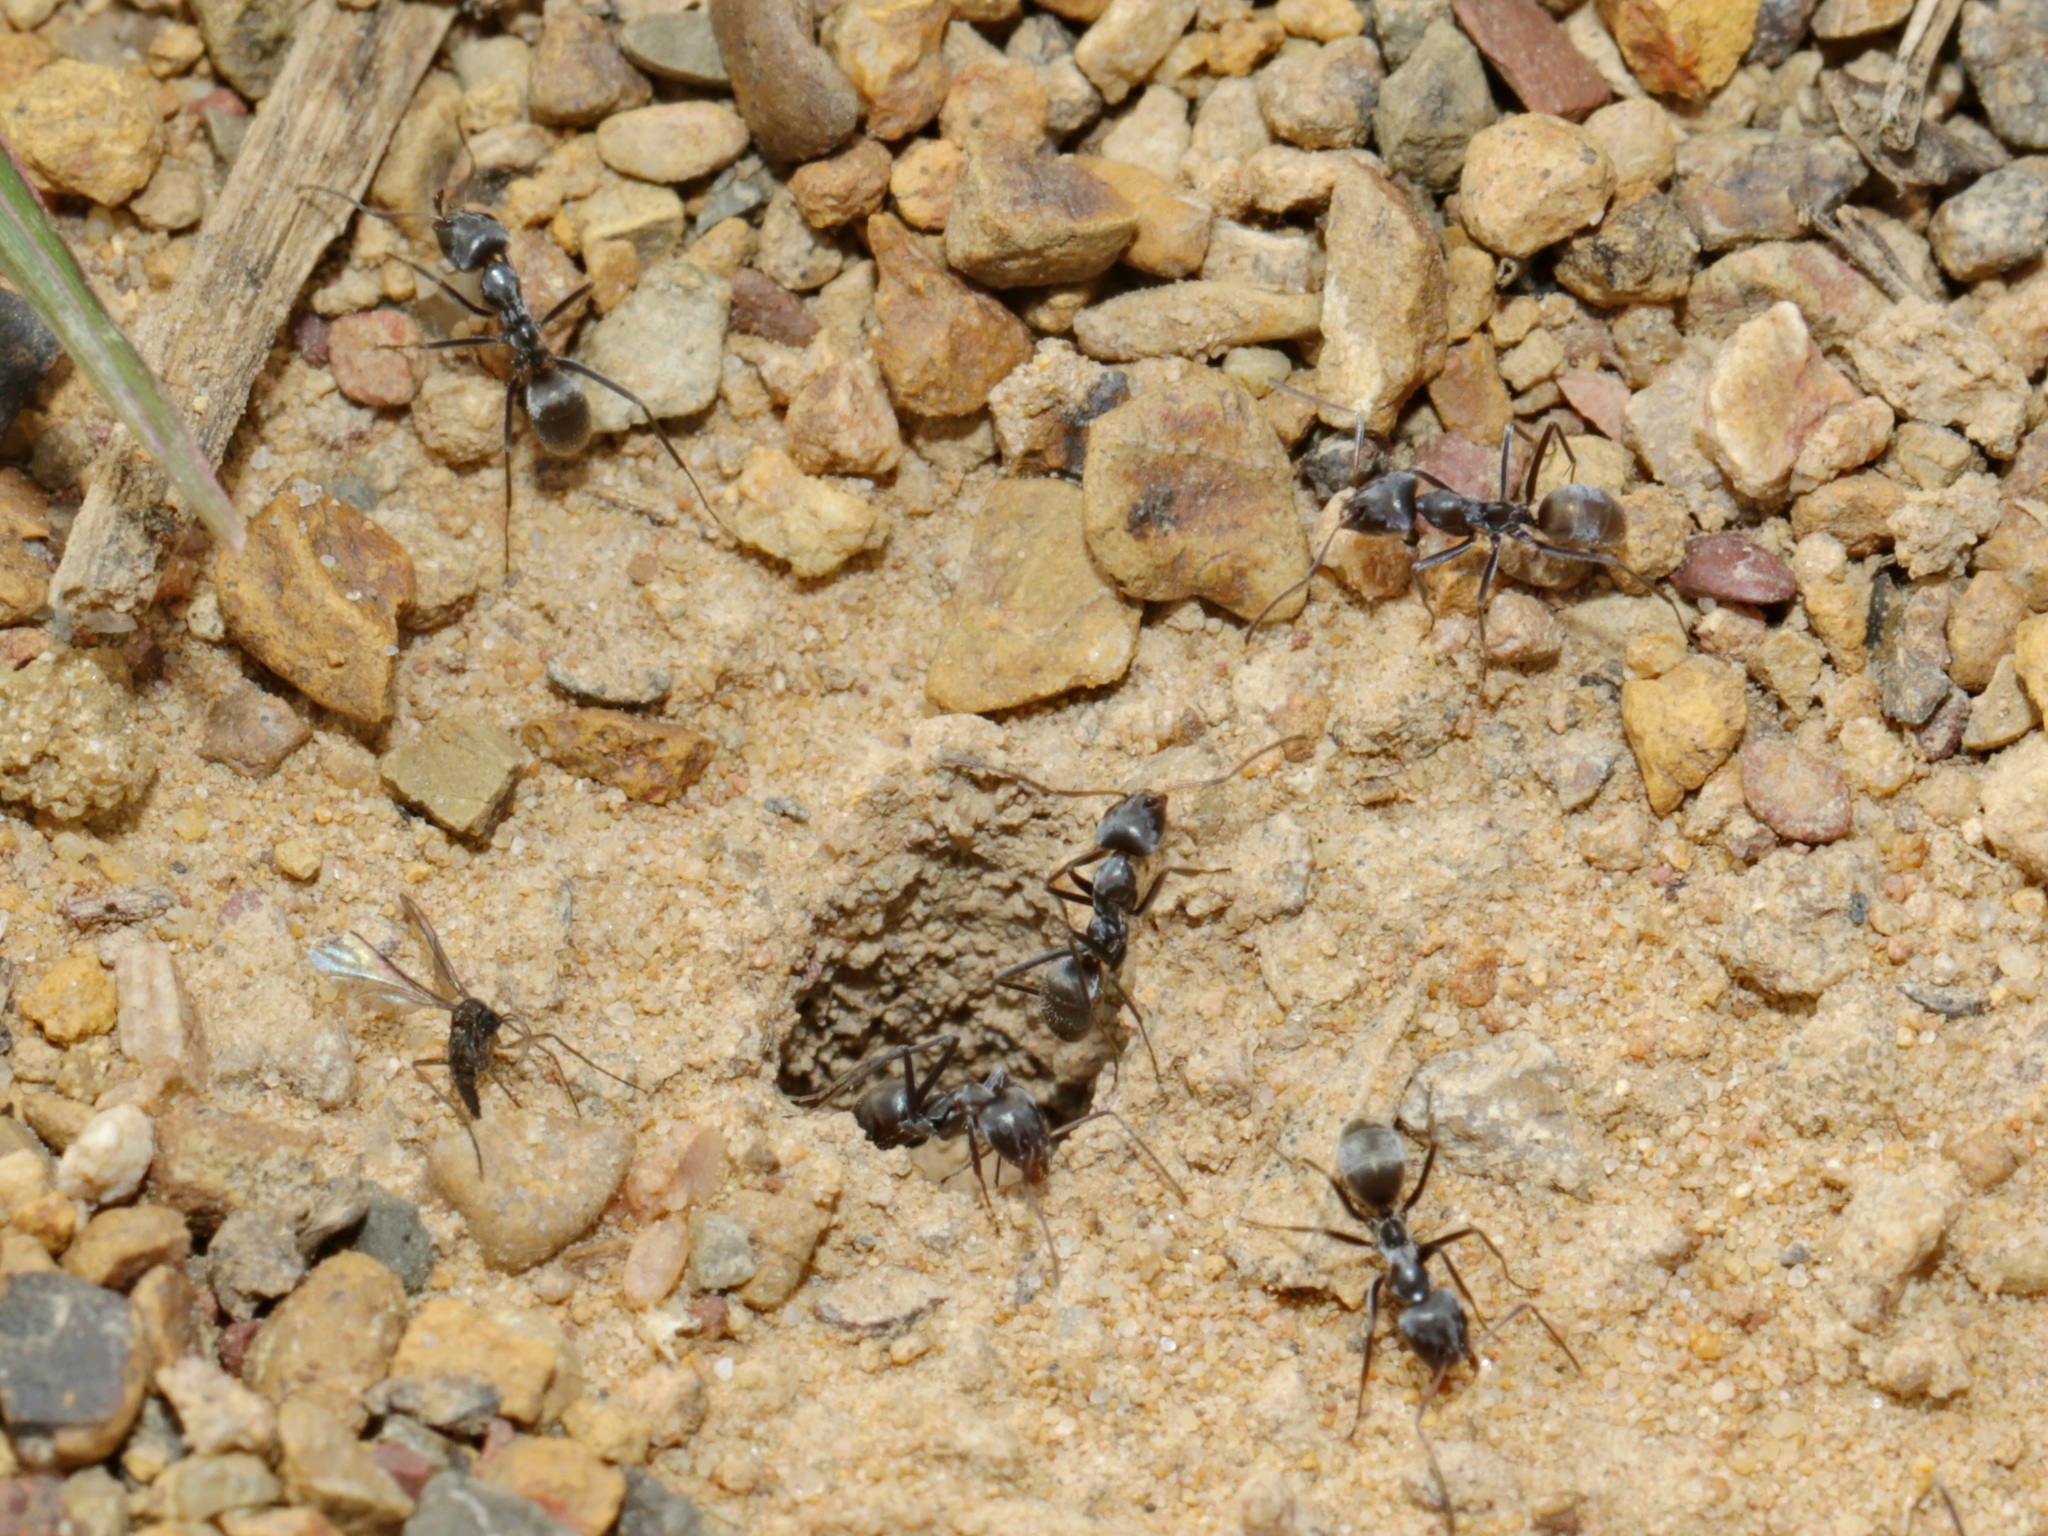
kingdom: Animalia
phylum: Arthropoda
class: Insecta
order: Hymenoptera
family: Formicidae
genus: Iridomyrmex
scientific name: Iridomyrmex anceps
